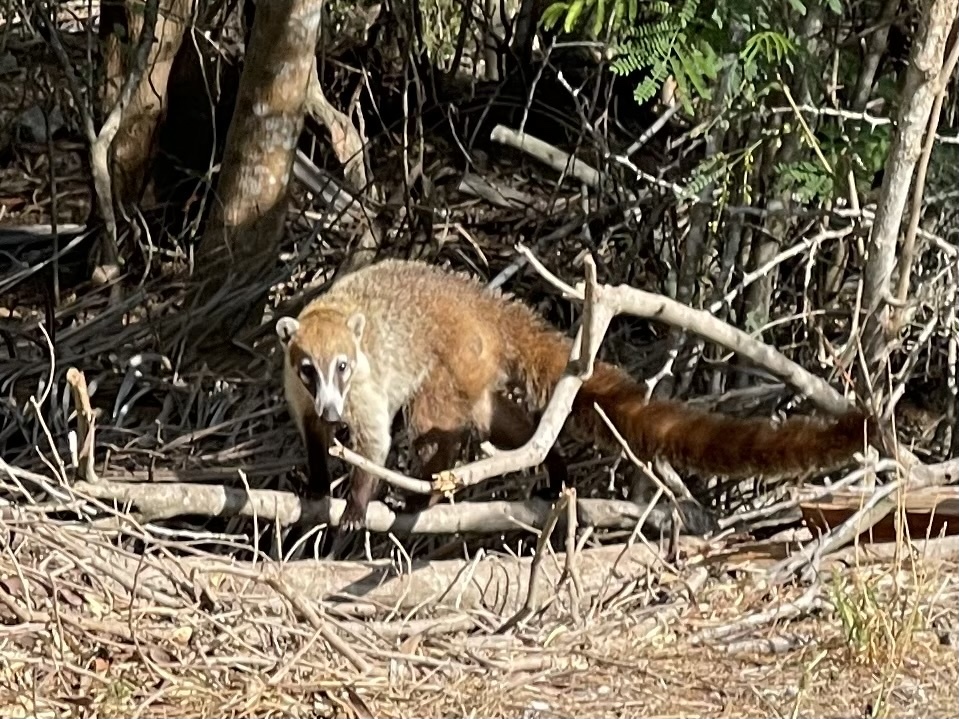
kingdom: Animalia
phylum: Chordata
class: Mammalia
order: Carnivora
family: Procyonidae
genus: Nasua
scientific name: Nasua narica
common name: White-nosed coati
